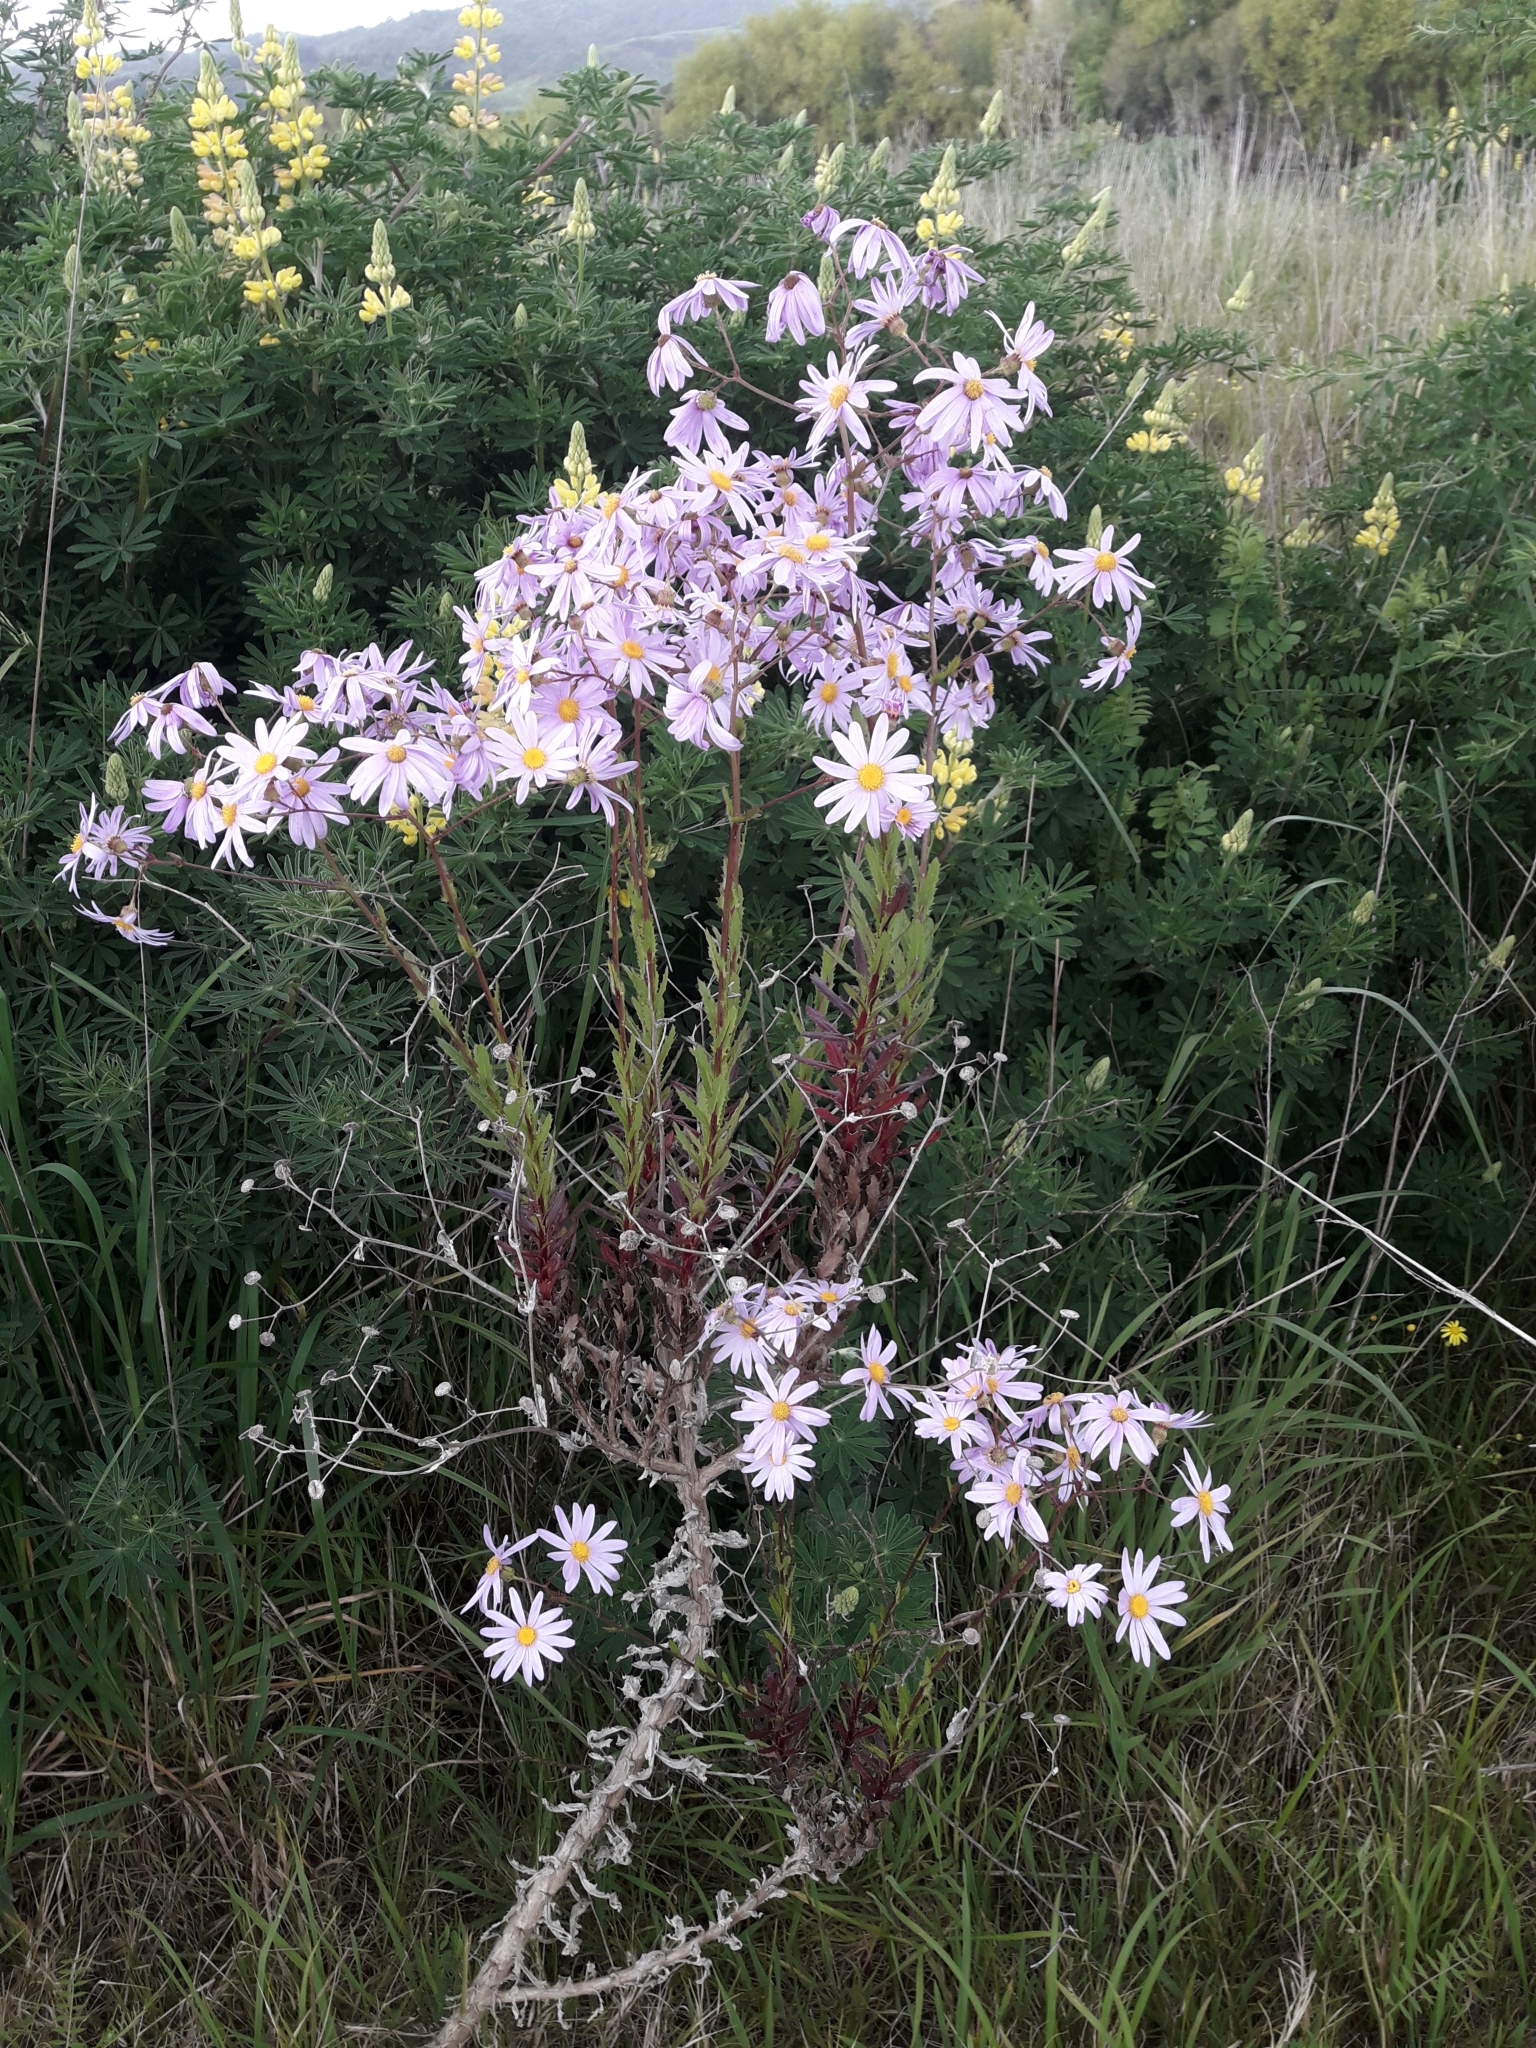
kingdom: Plantae
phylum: Tracheophyta
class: Magnoliopsida
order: Asterales
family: Asteraceae
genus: Senecio
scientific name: Senecio glastifolius
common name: Woad-leaved ragwort
